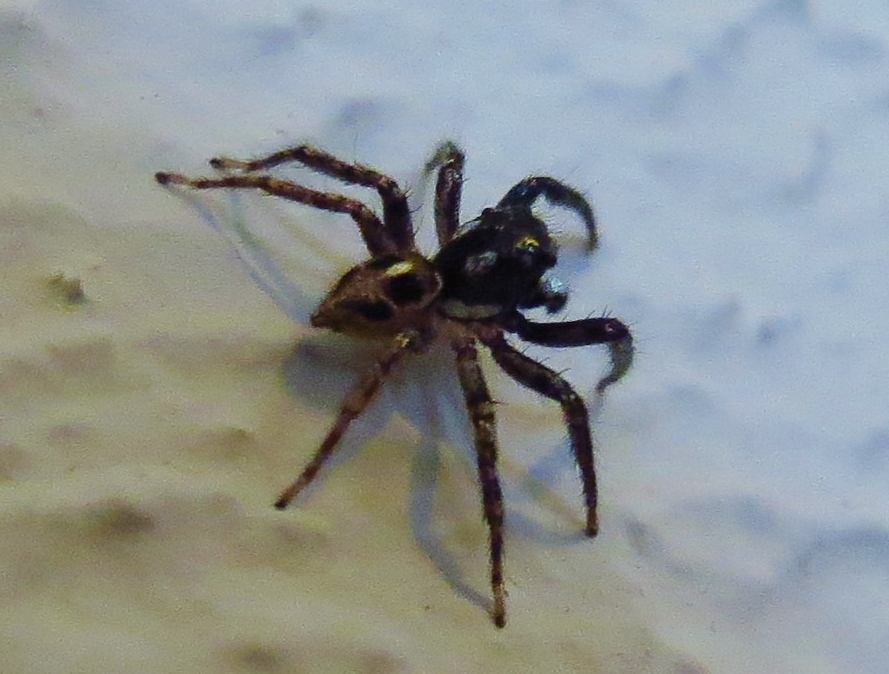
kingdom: Animalia
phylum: Arthropoda
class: Arachnida
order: Araneae
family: Salticidae
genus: Anasaitis
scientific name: Anasaitis canosa
